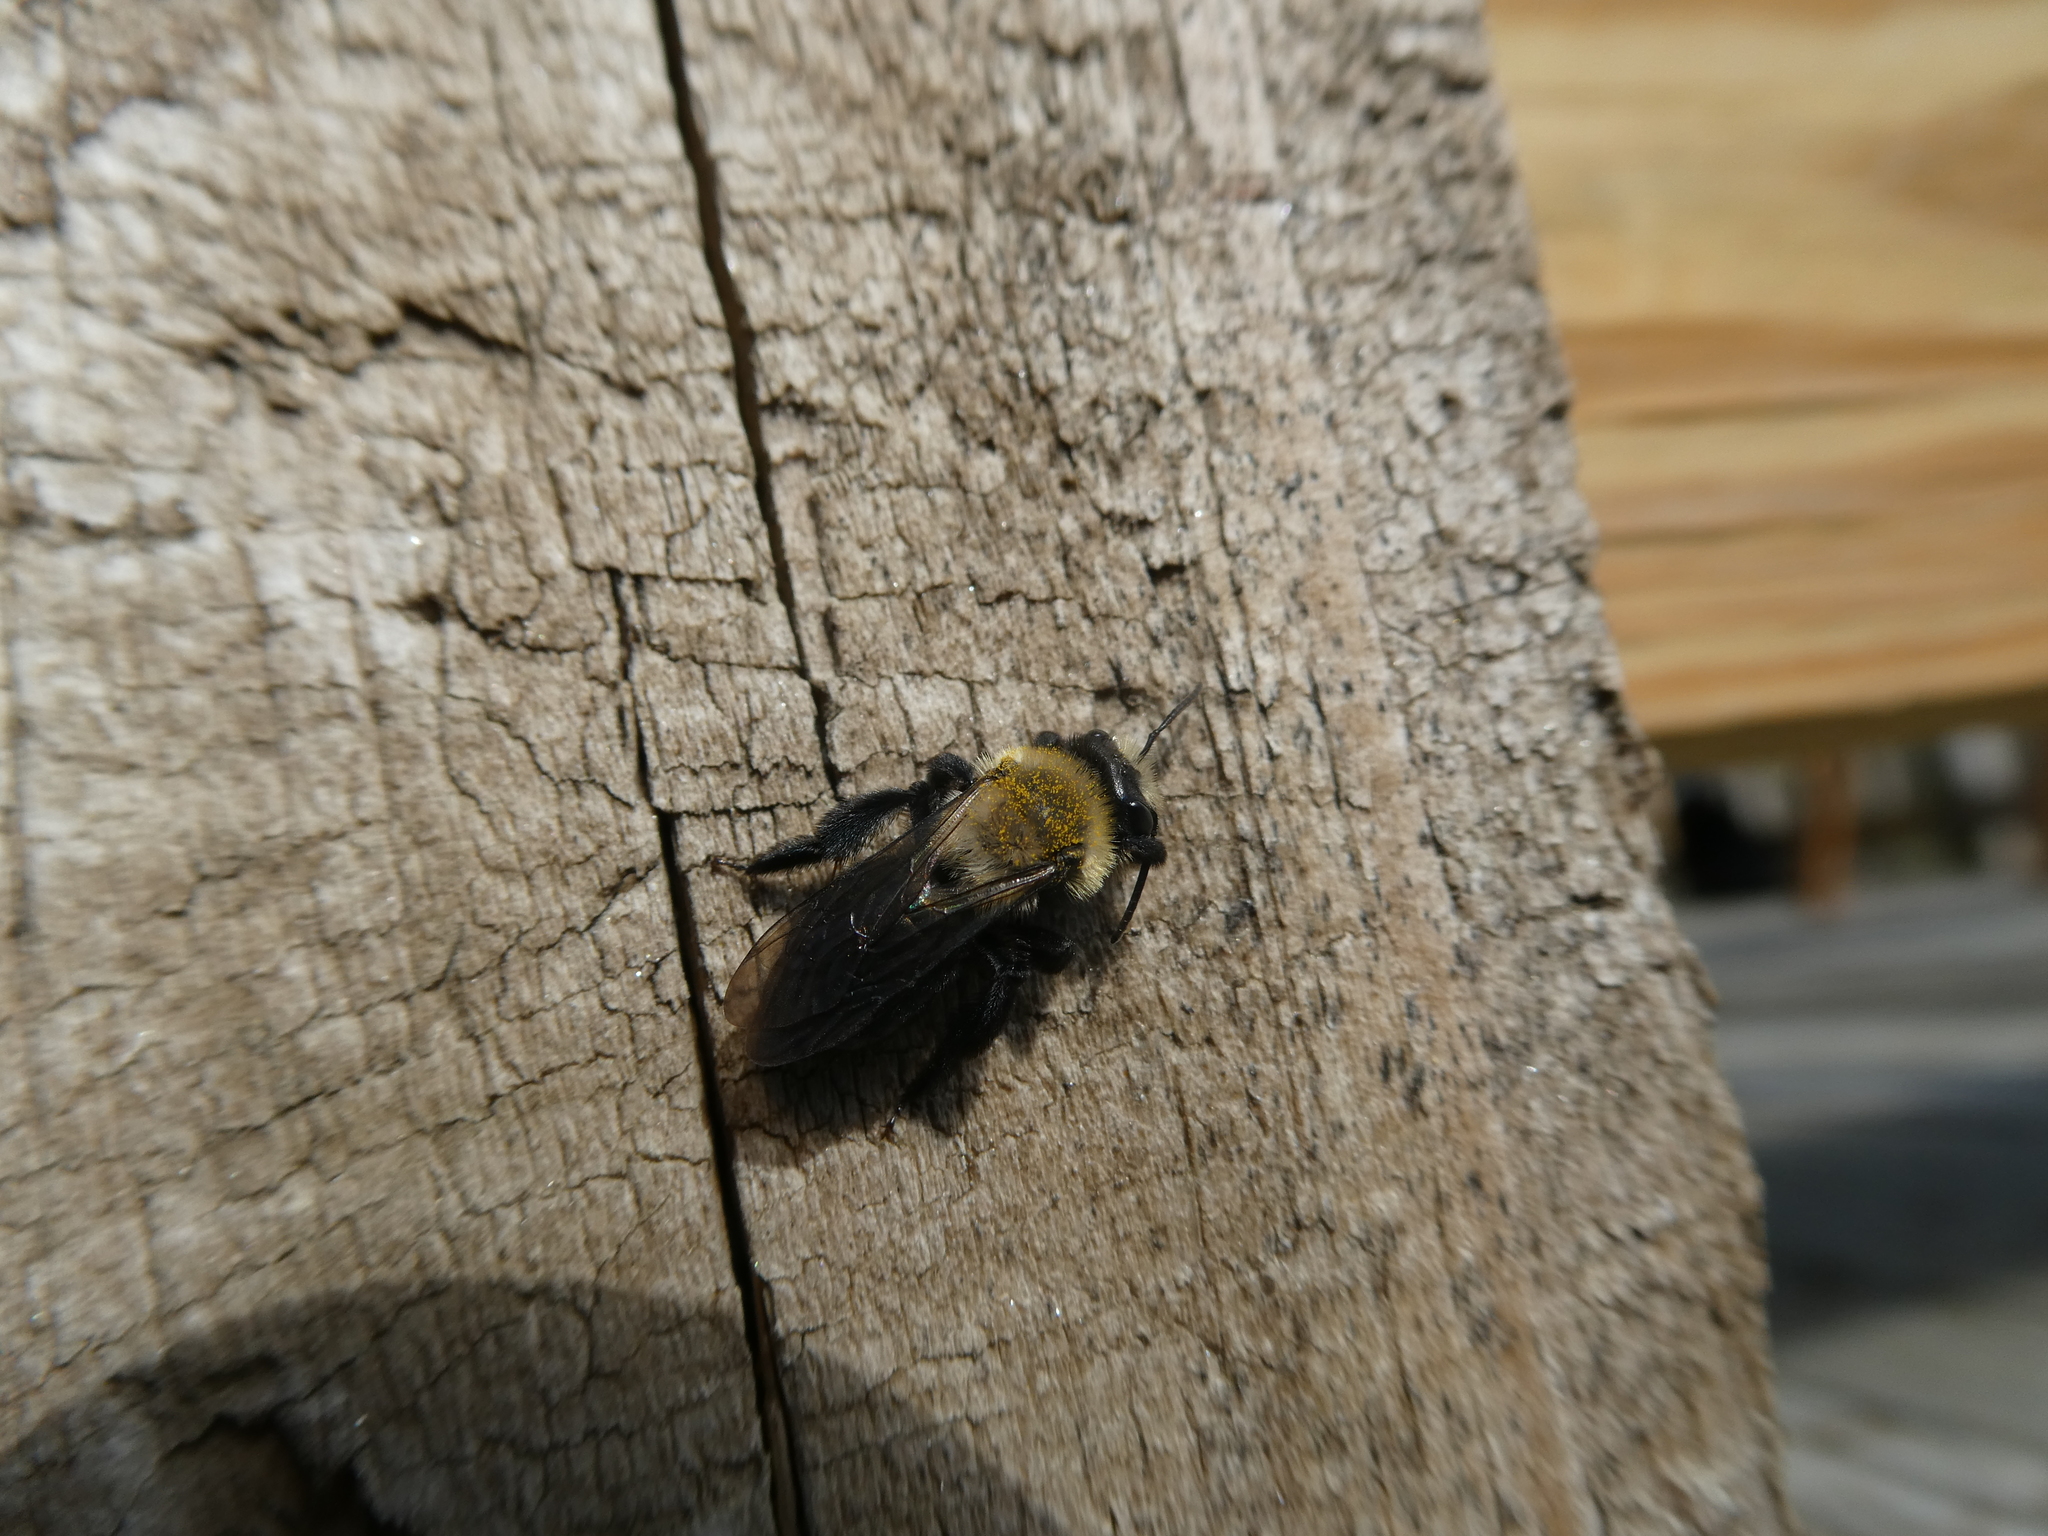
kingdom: Animalia
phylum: Arthropoda
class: Insecta
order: Hymenoptera
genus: Melandrena
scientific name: Melandrena
